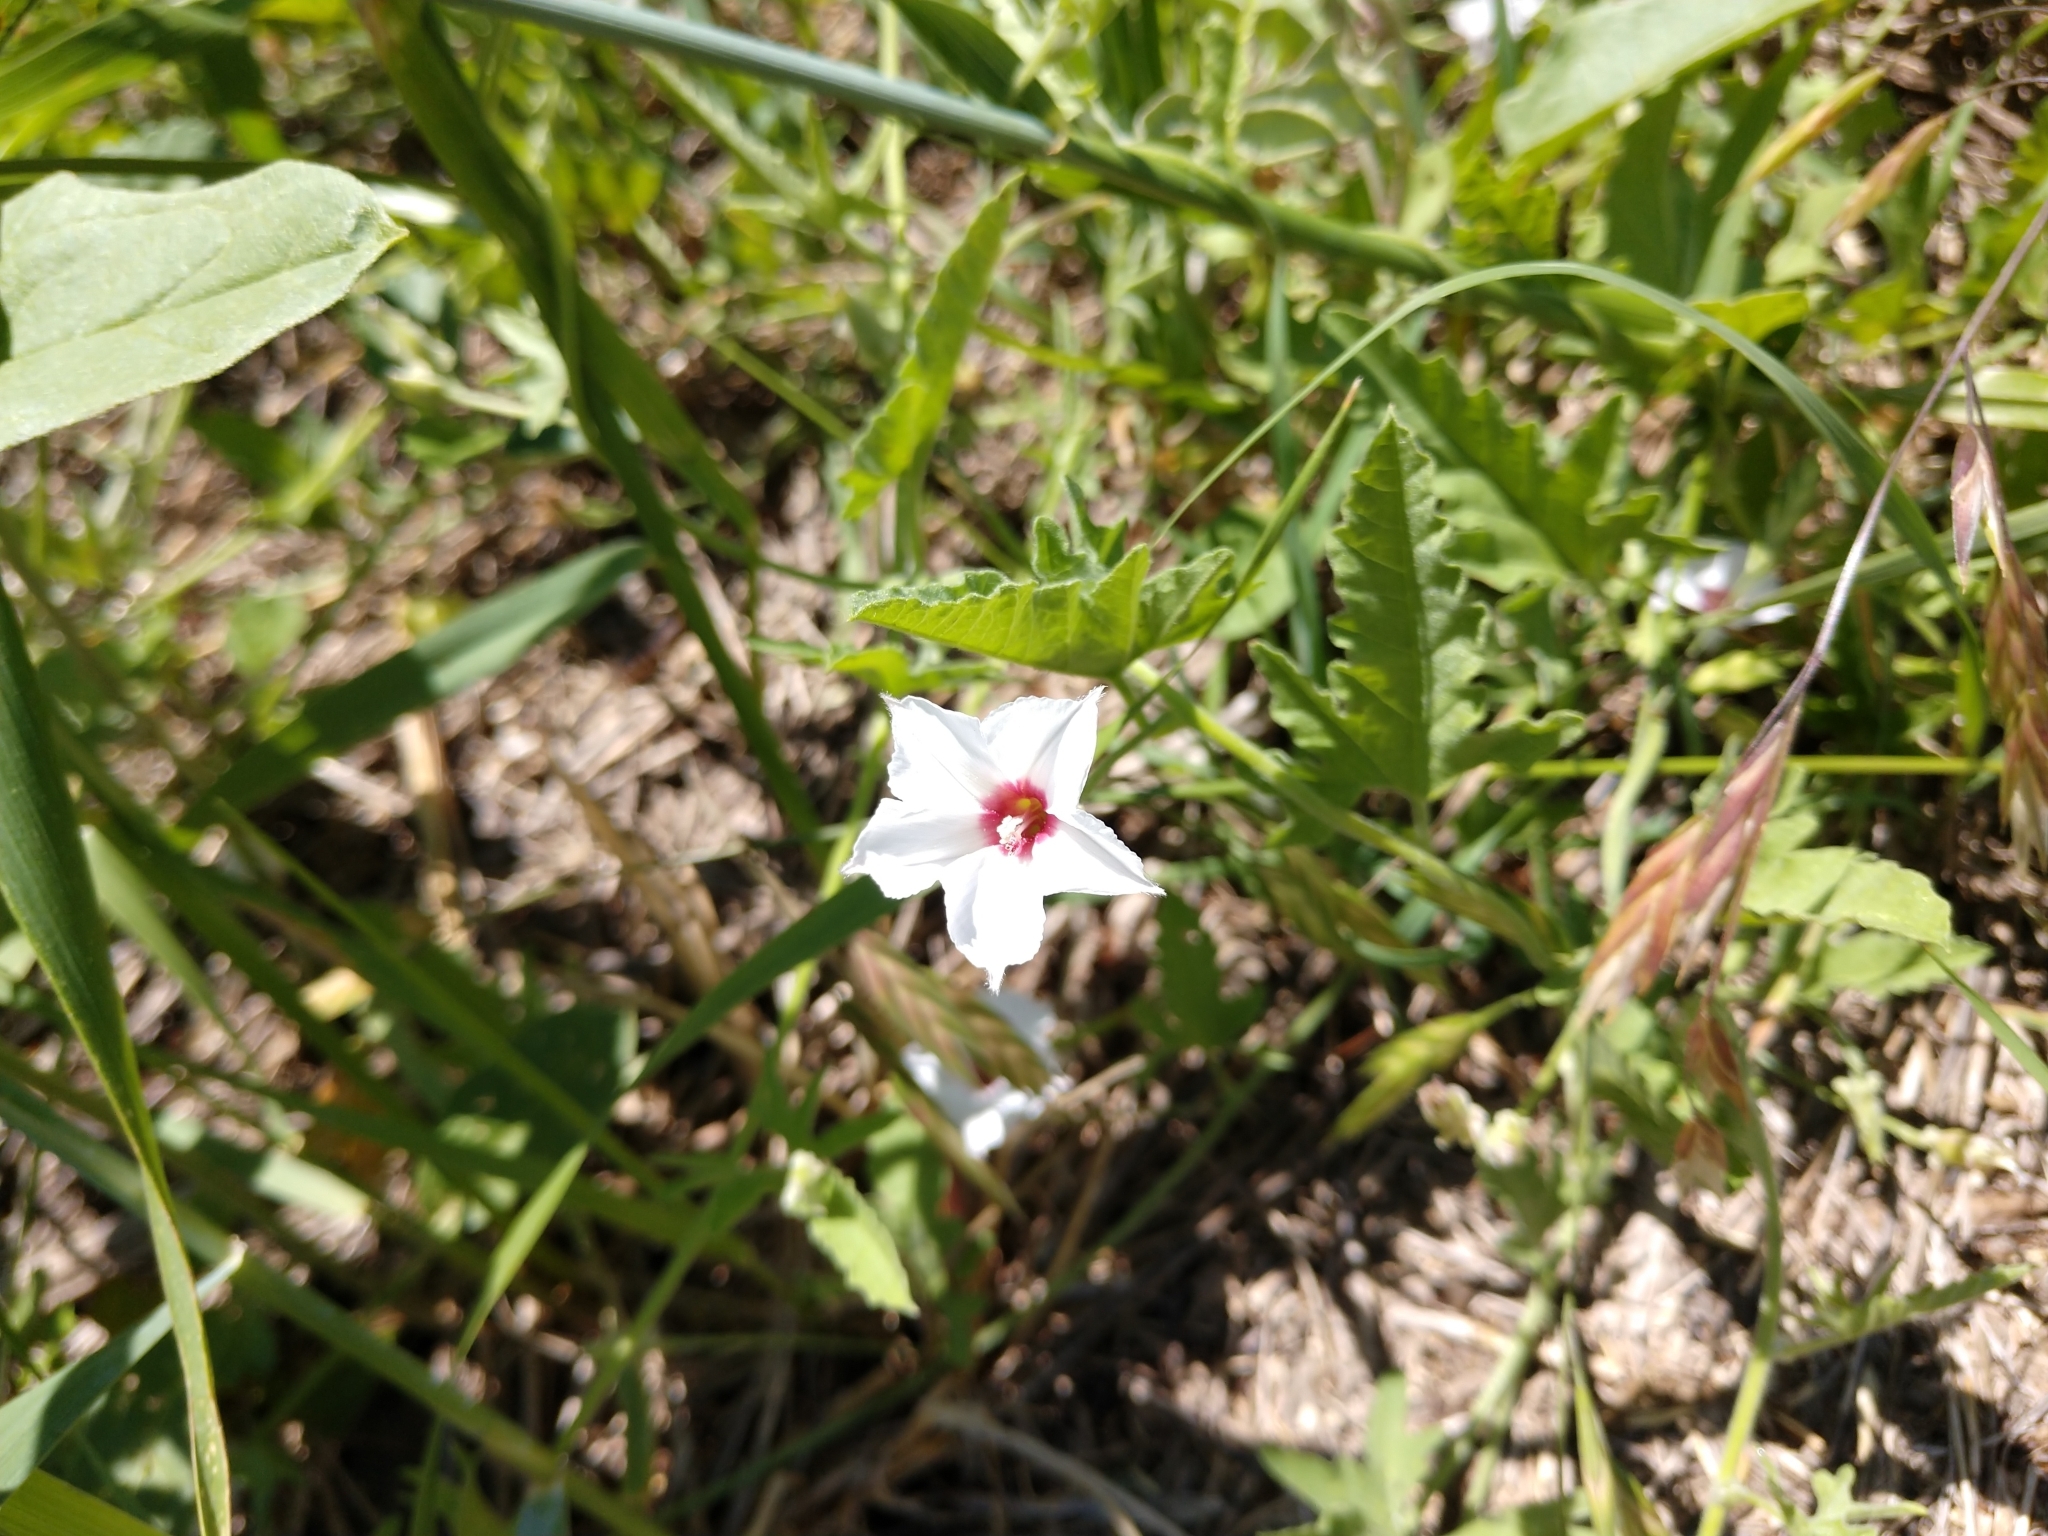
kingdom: Plantae
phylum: Tracheophyta
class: Magnoliopsida
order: Solanales
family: Convolvulaceae
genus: Convolvulus
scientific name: Convolvulus equitans
